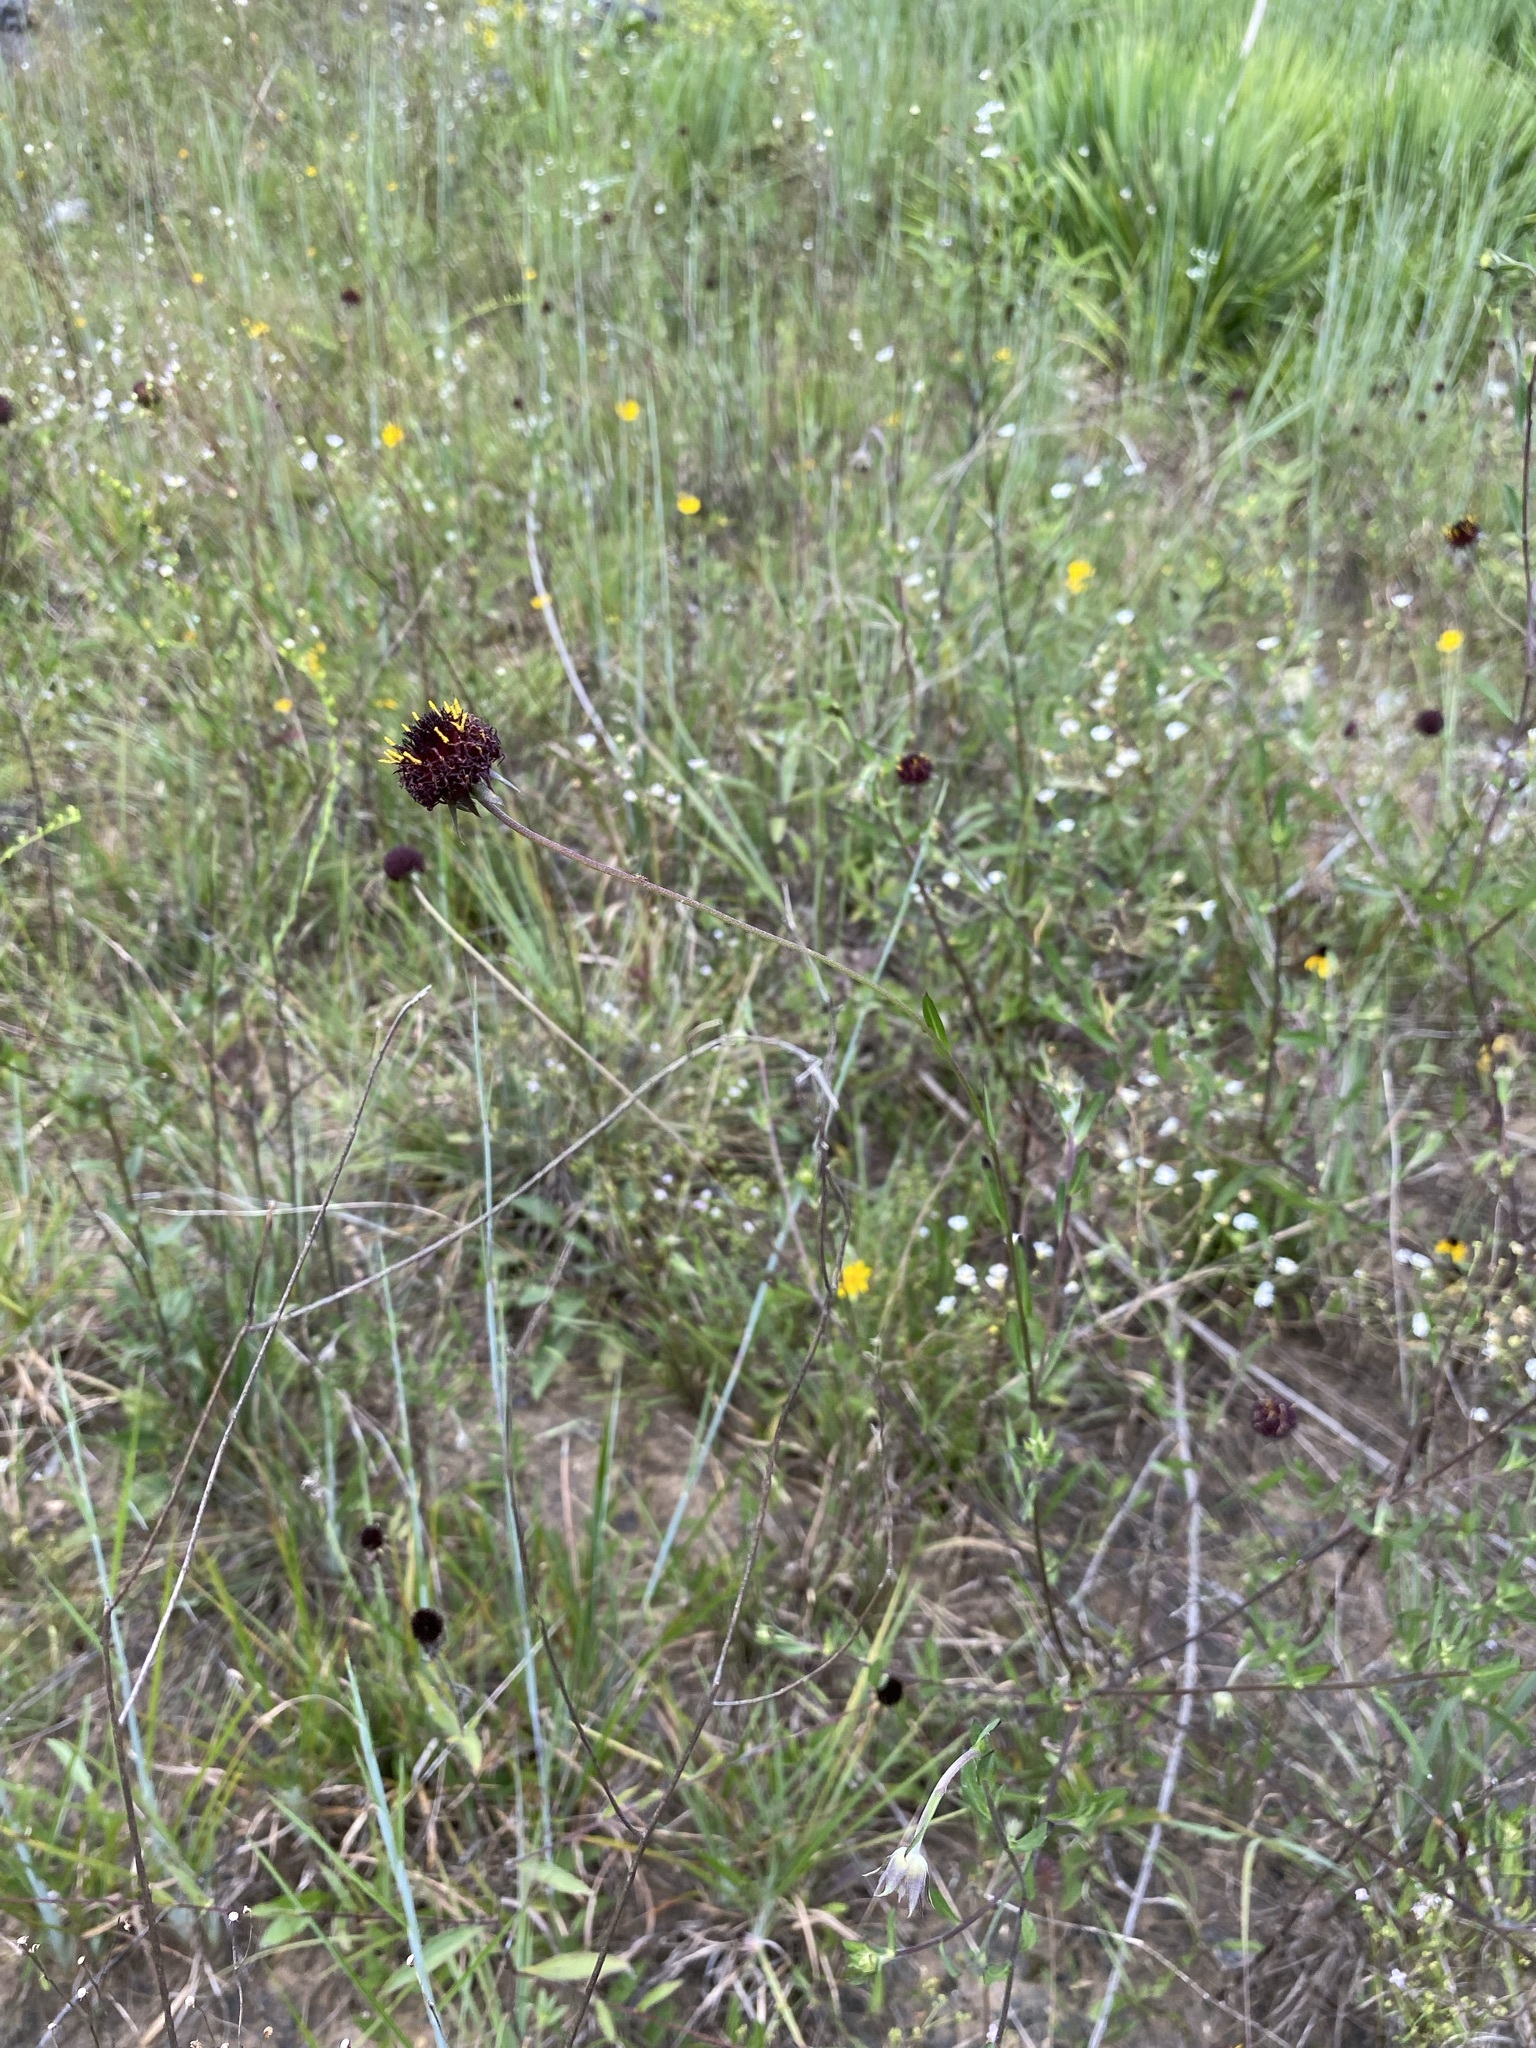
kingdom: Plantae
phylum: Tracheophyta
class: Magnoliopsida
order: Asterales
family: Asteraceae
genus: Gaillardia
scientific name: Gaillardia aestivalis
